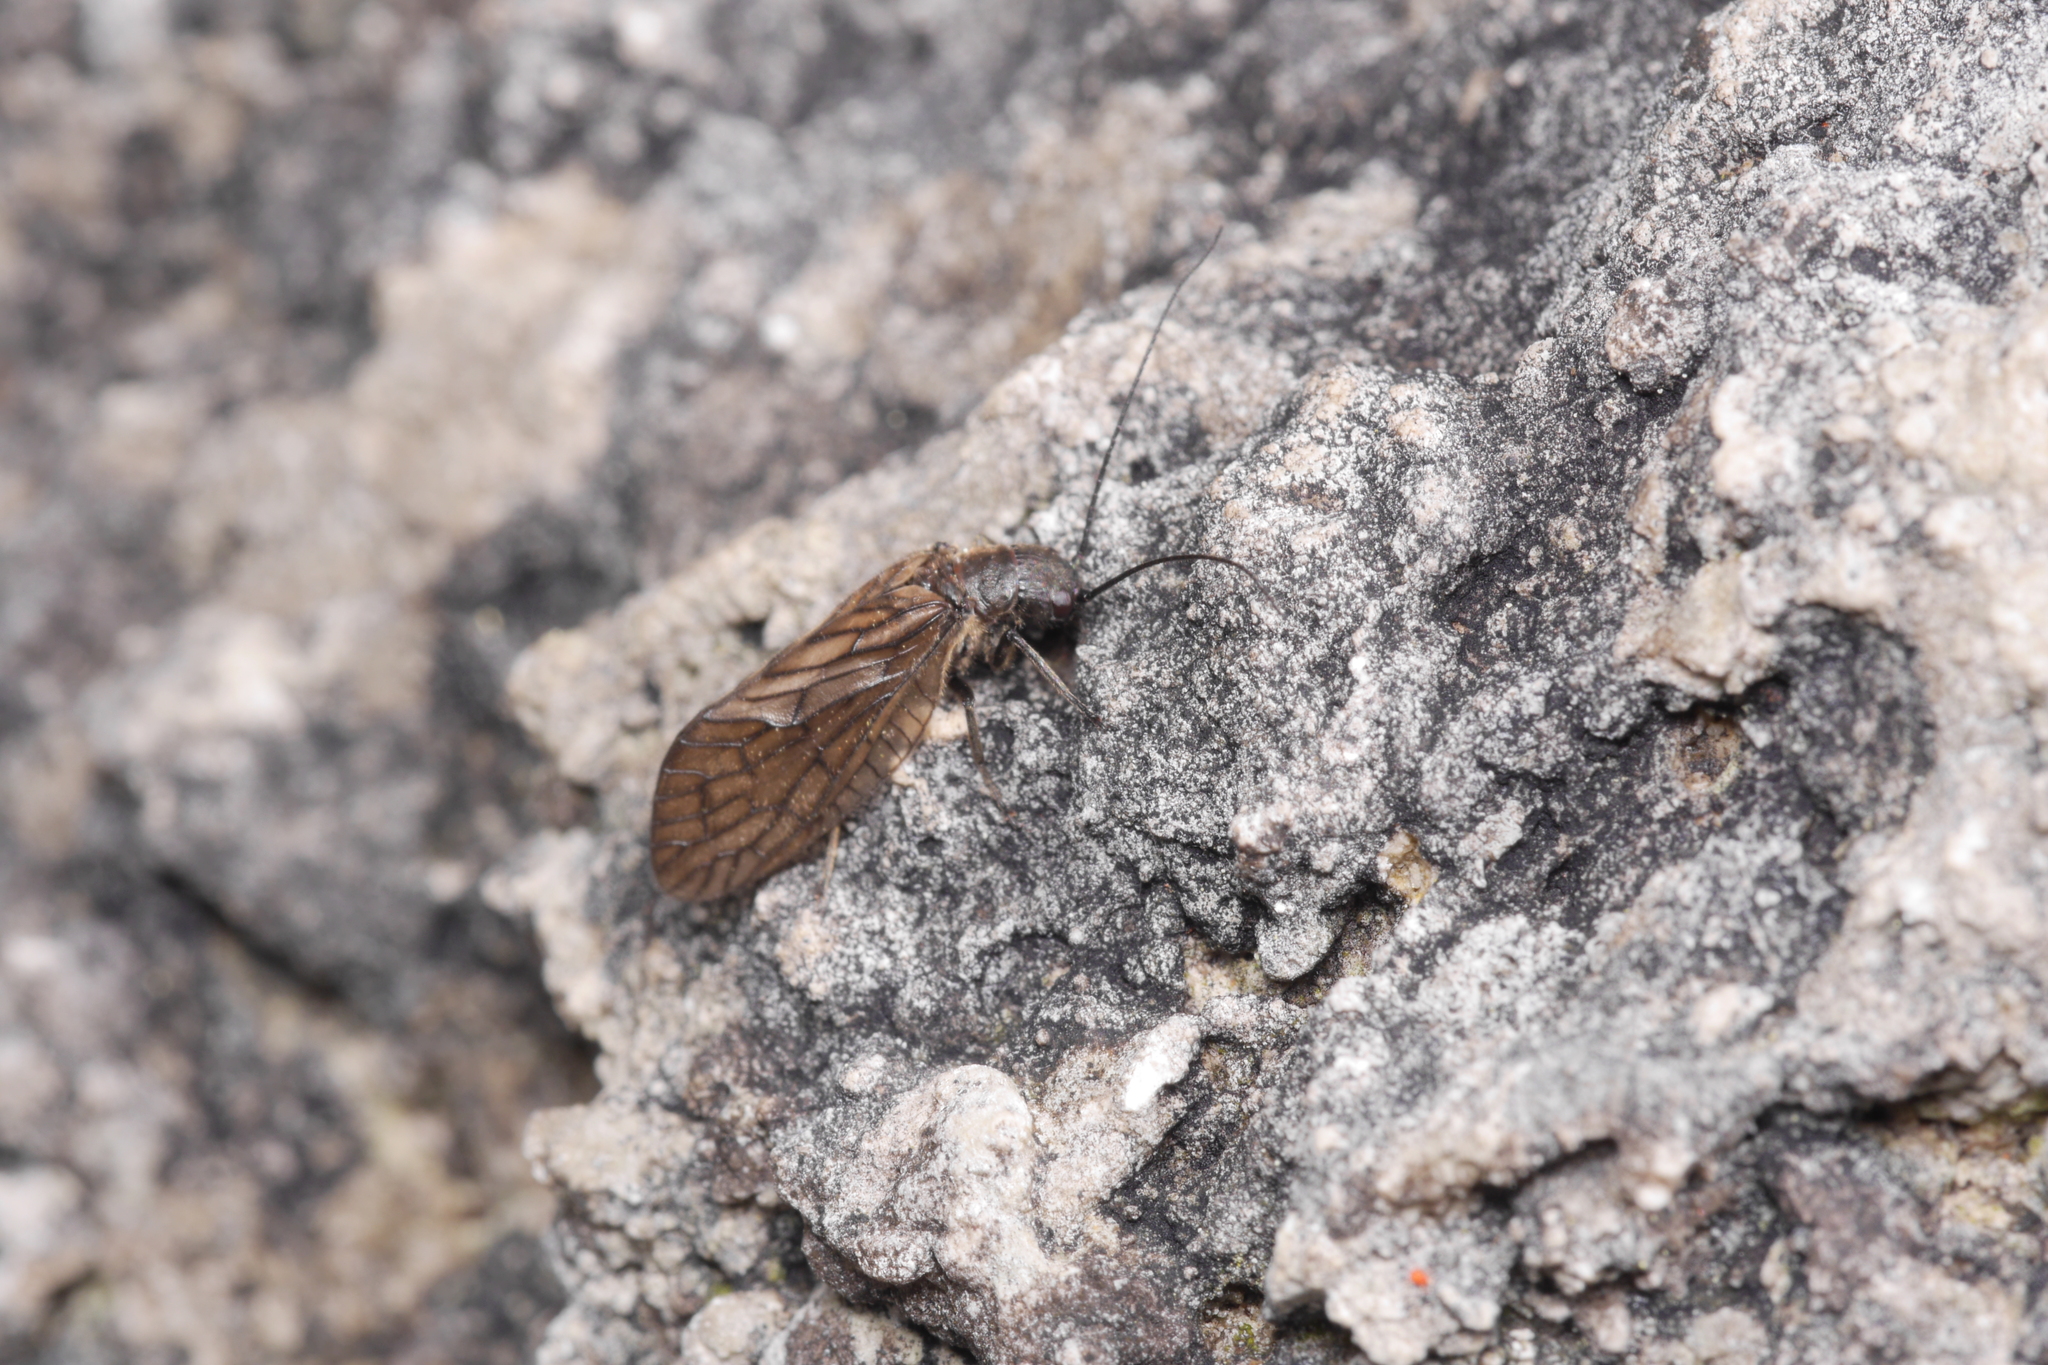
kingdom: Animalia
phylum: Arthropoda
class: Insecta
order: Megaloptera
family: Sialidae
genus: Sialis
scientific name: Sialis
